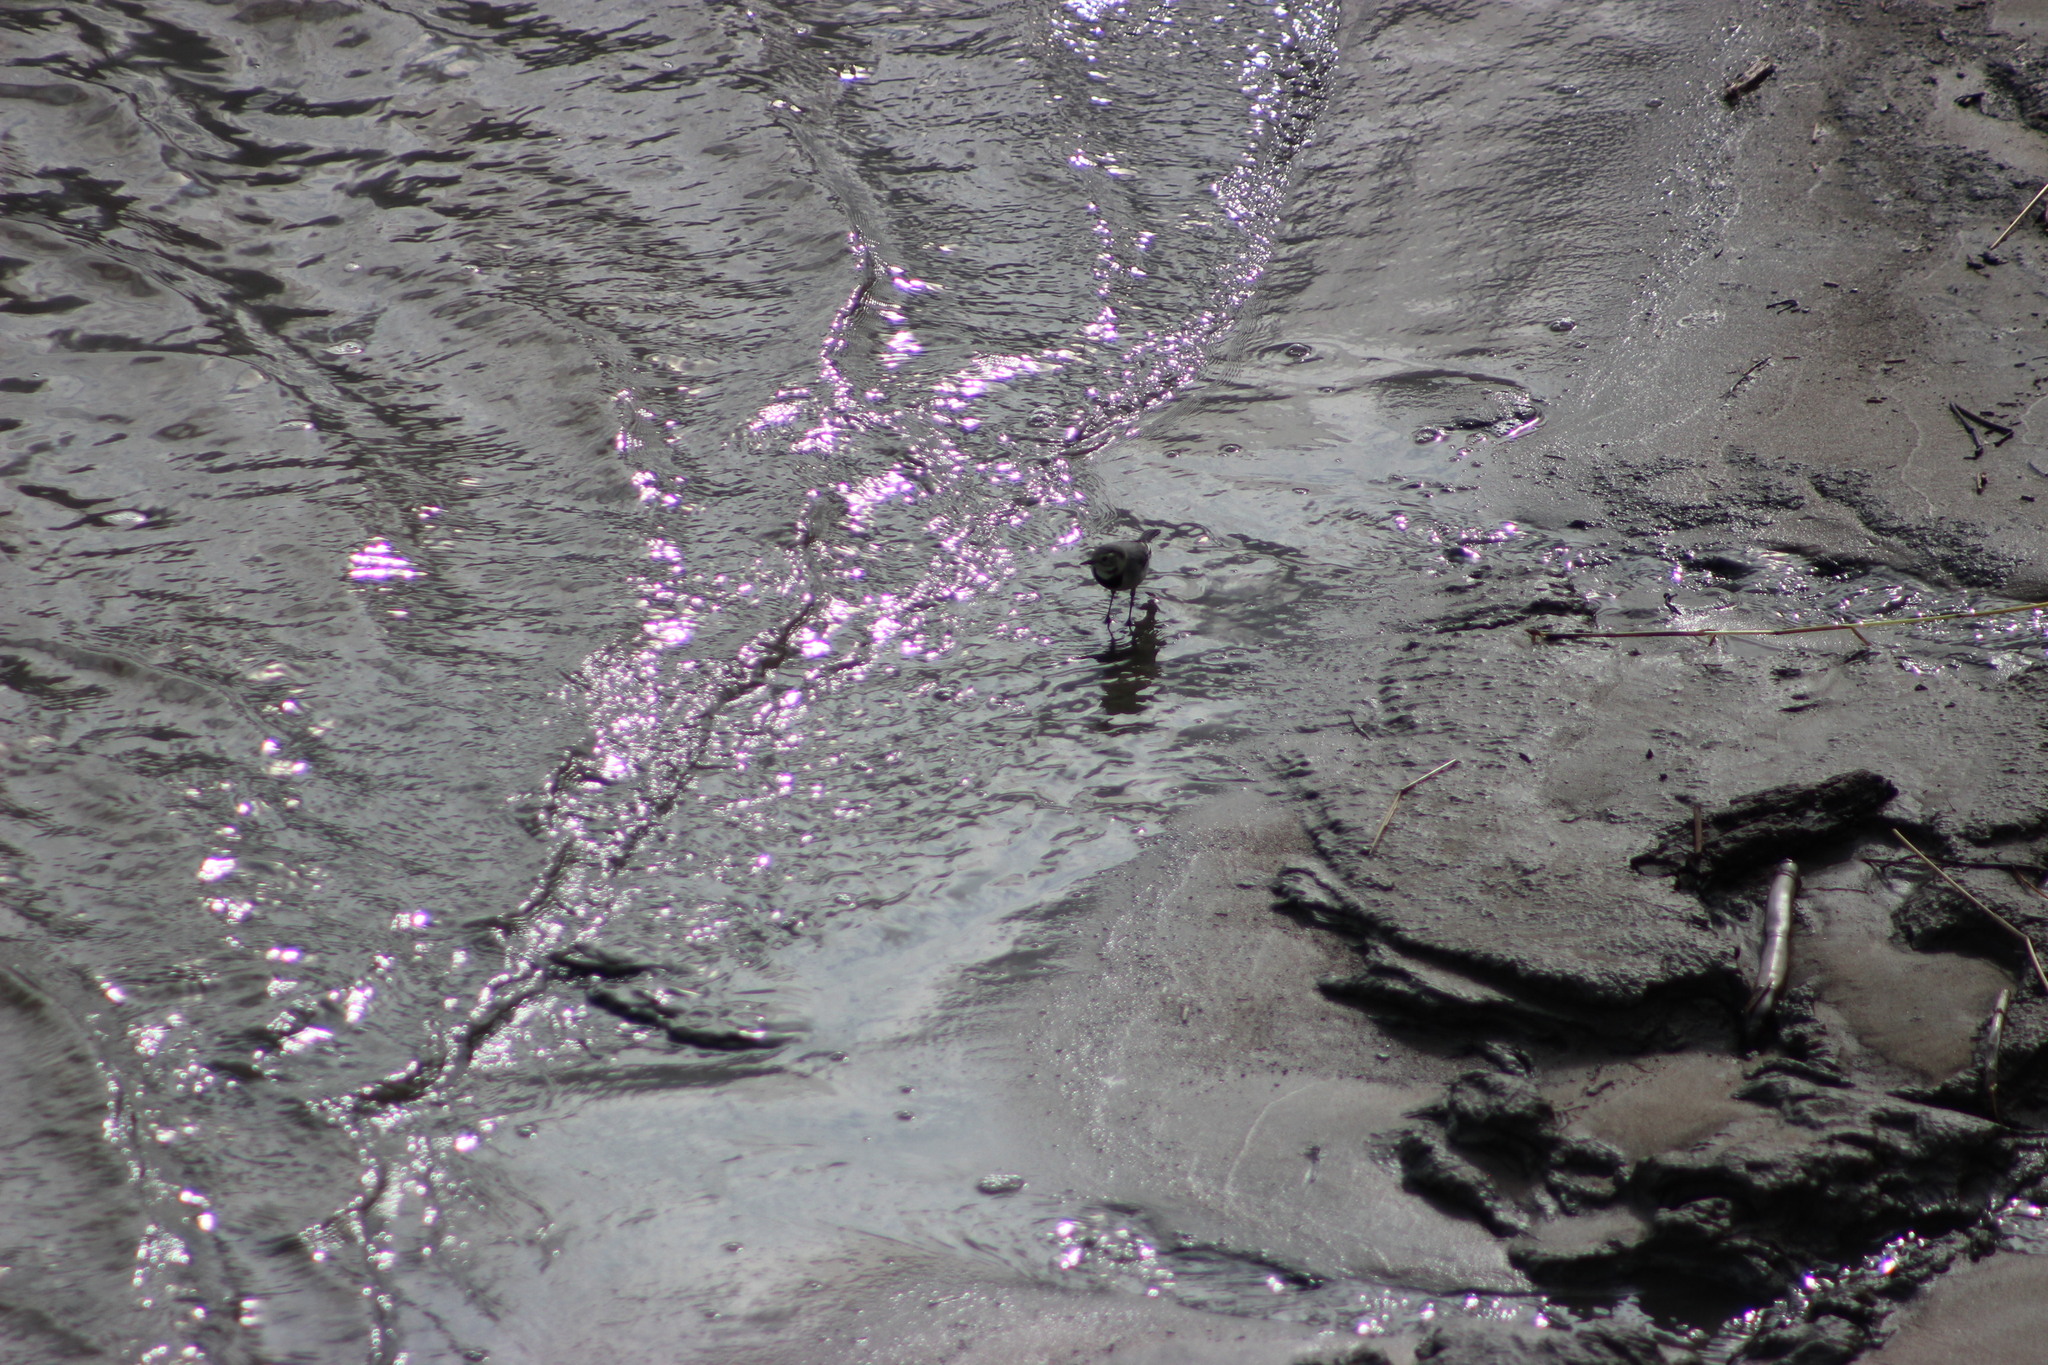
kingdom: Animalia
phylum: Chordata
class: Aves
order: Passeriformes
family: Motacillidae
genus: Motacilla
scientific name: Motacilla alba
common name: White wagtail
